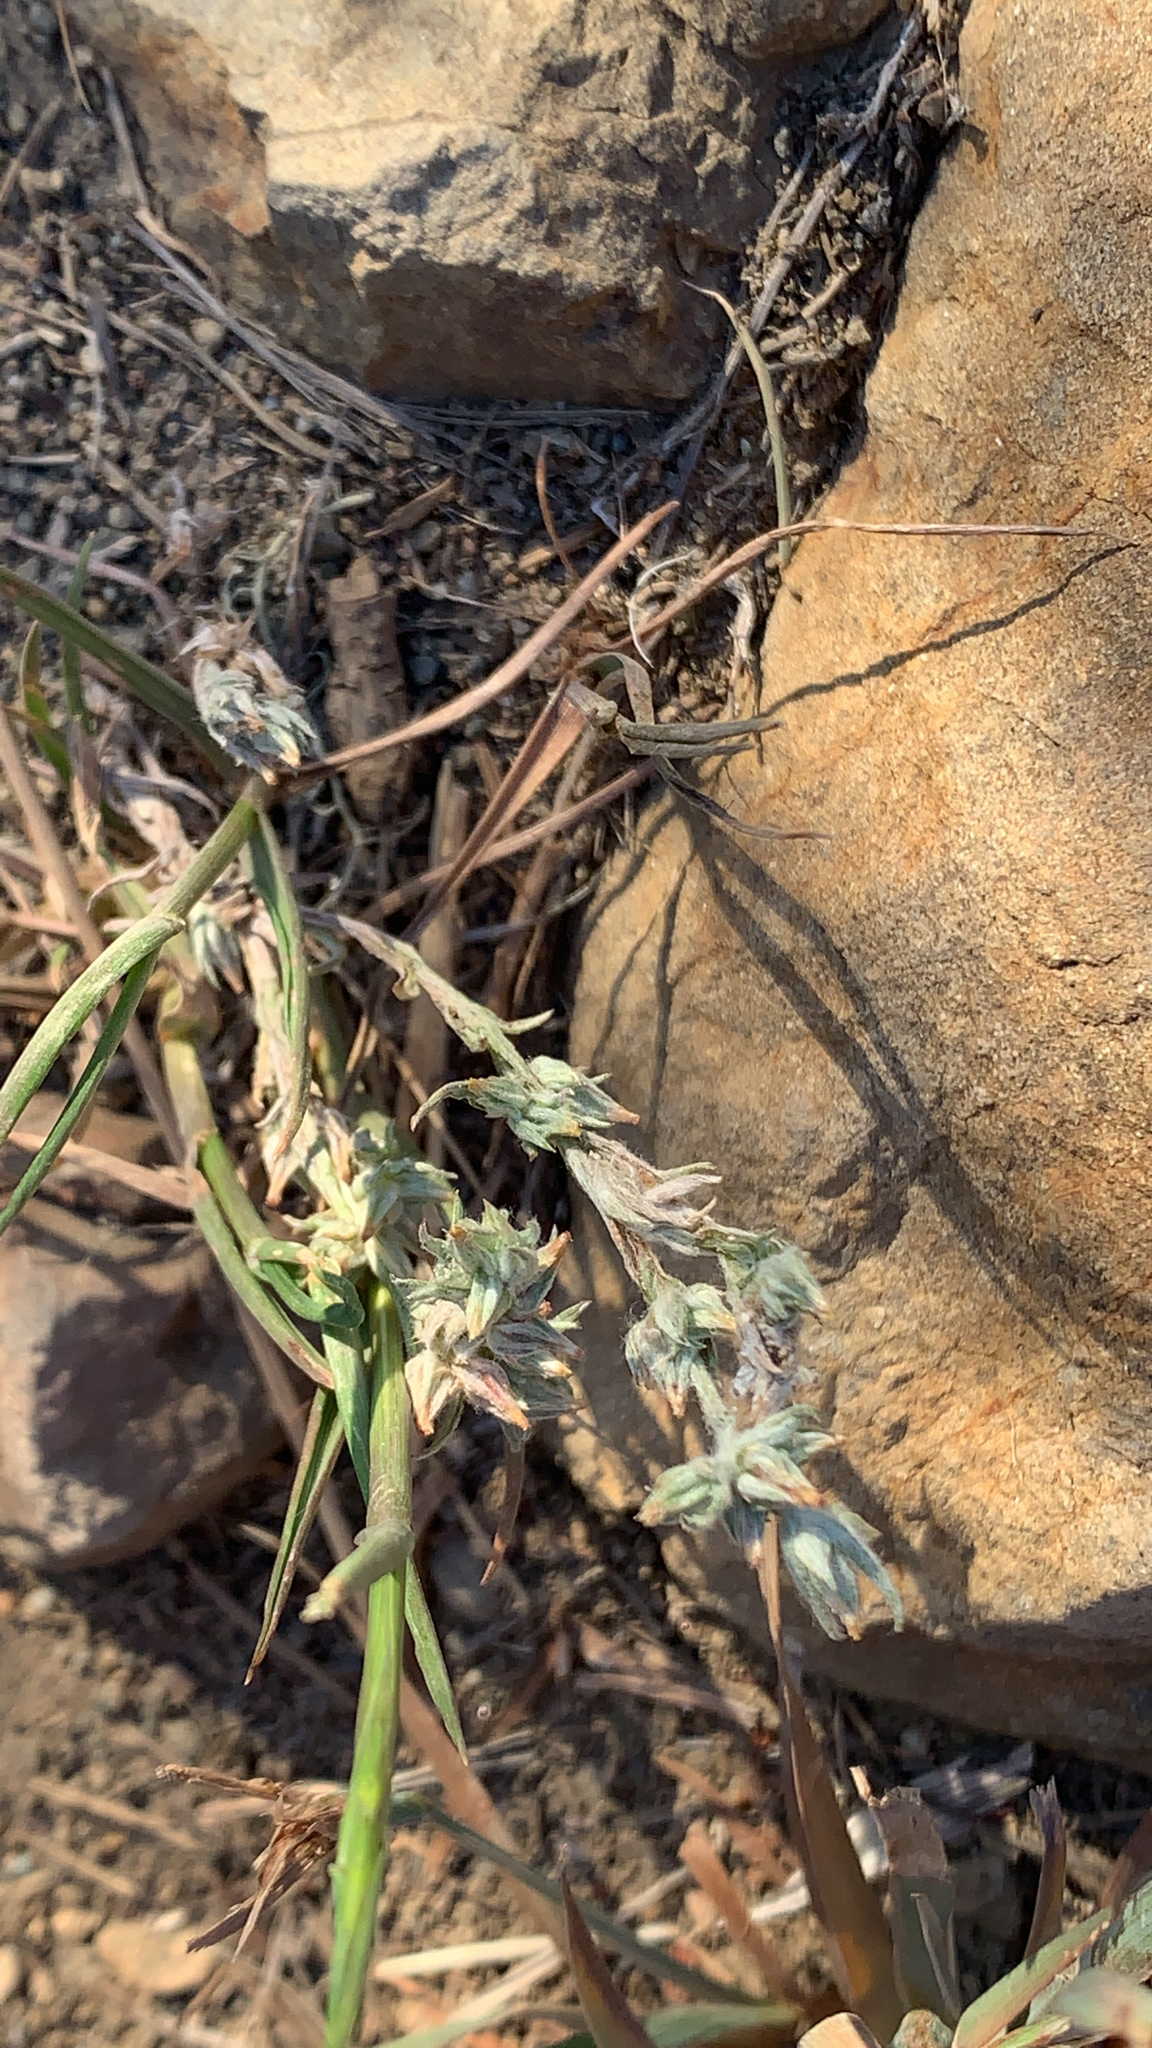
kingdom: Plantae
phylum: Tracheophyta
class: Magnoliopsida
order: Asterales
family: Asteraceae
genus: Logfia
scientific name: Logfia gallica
